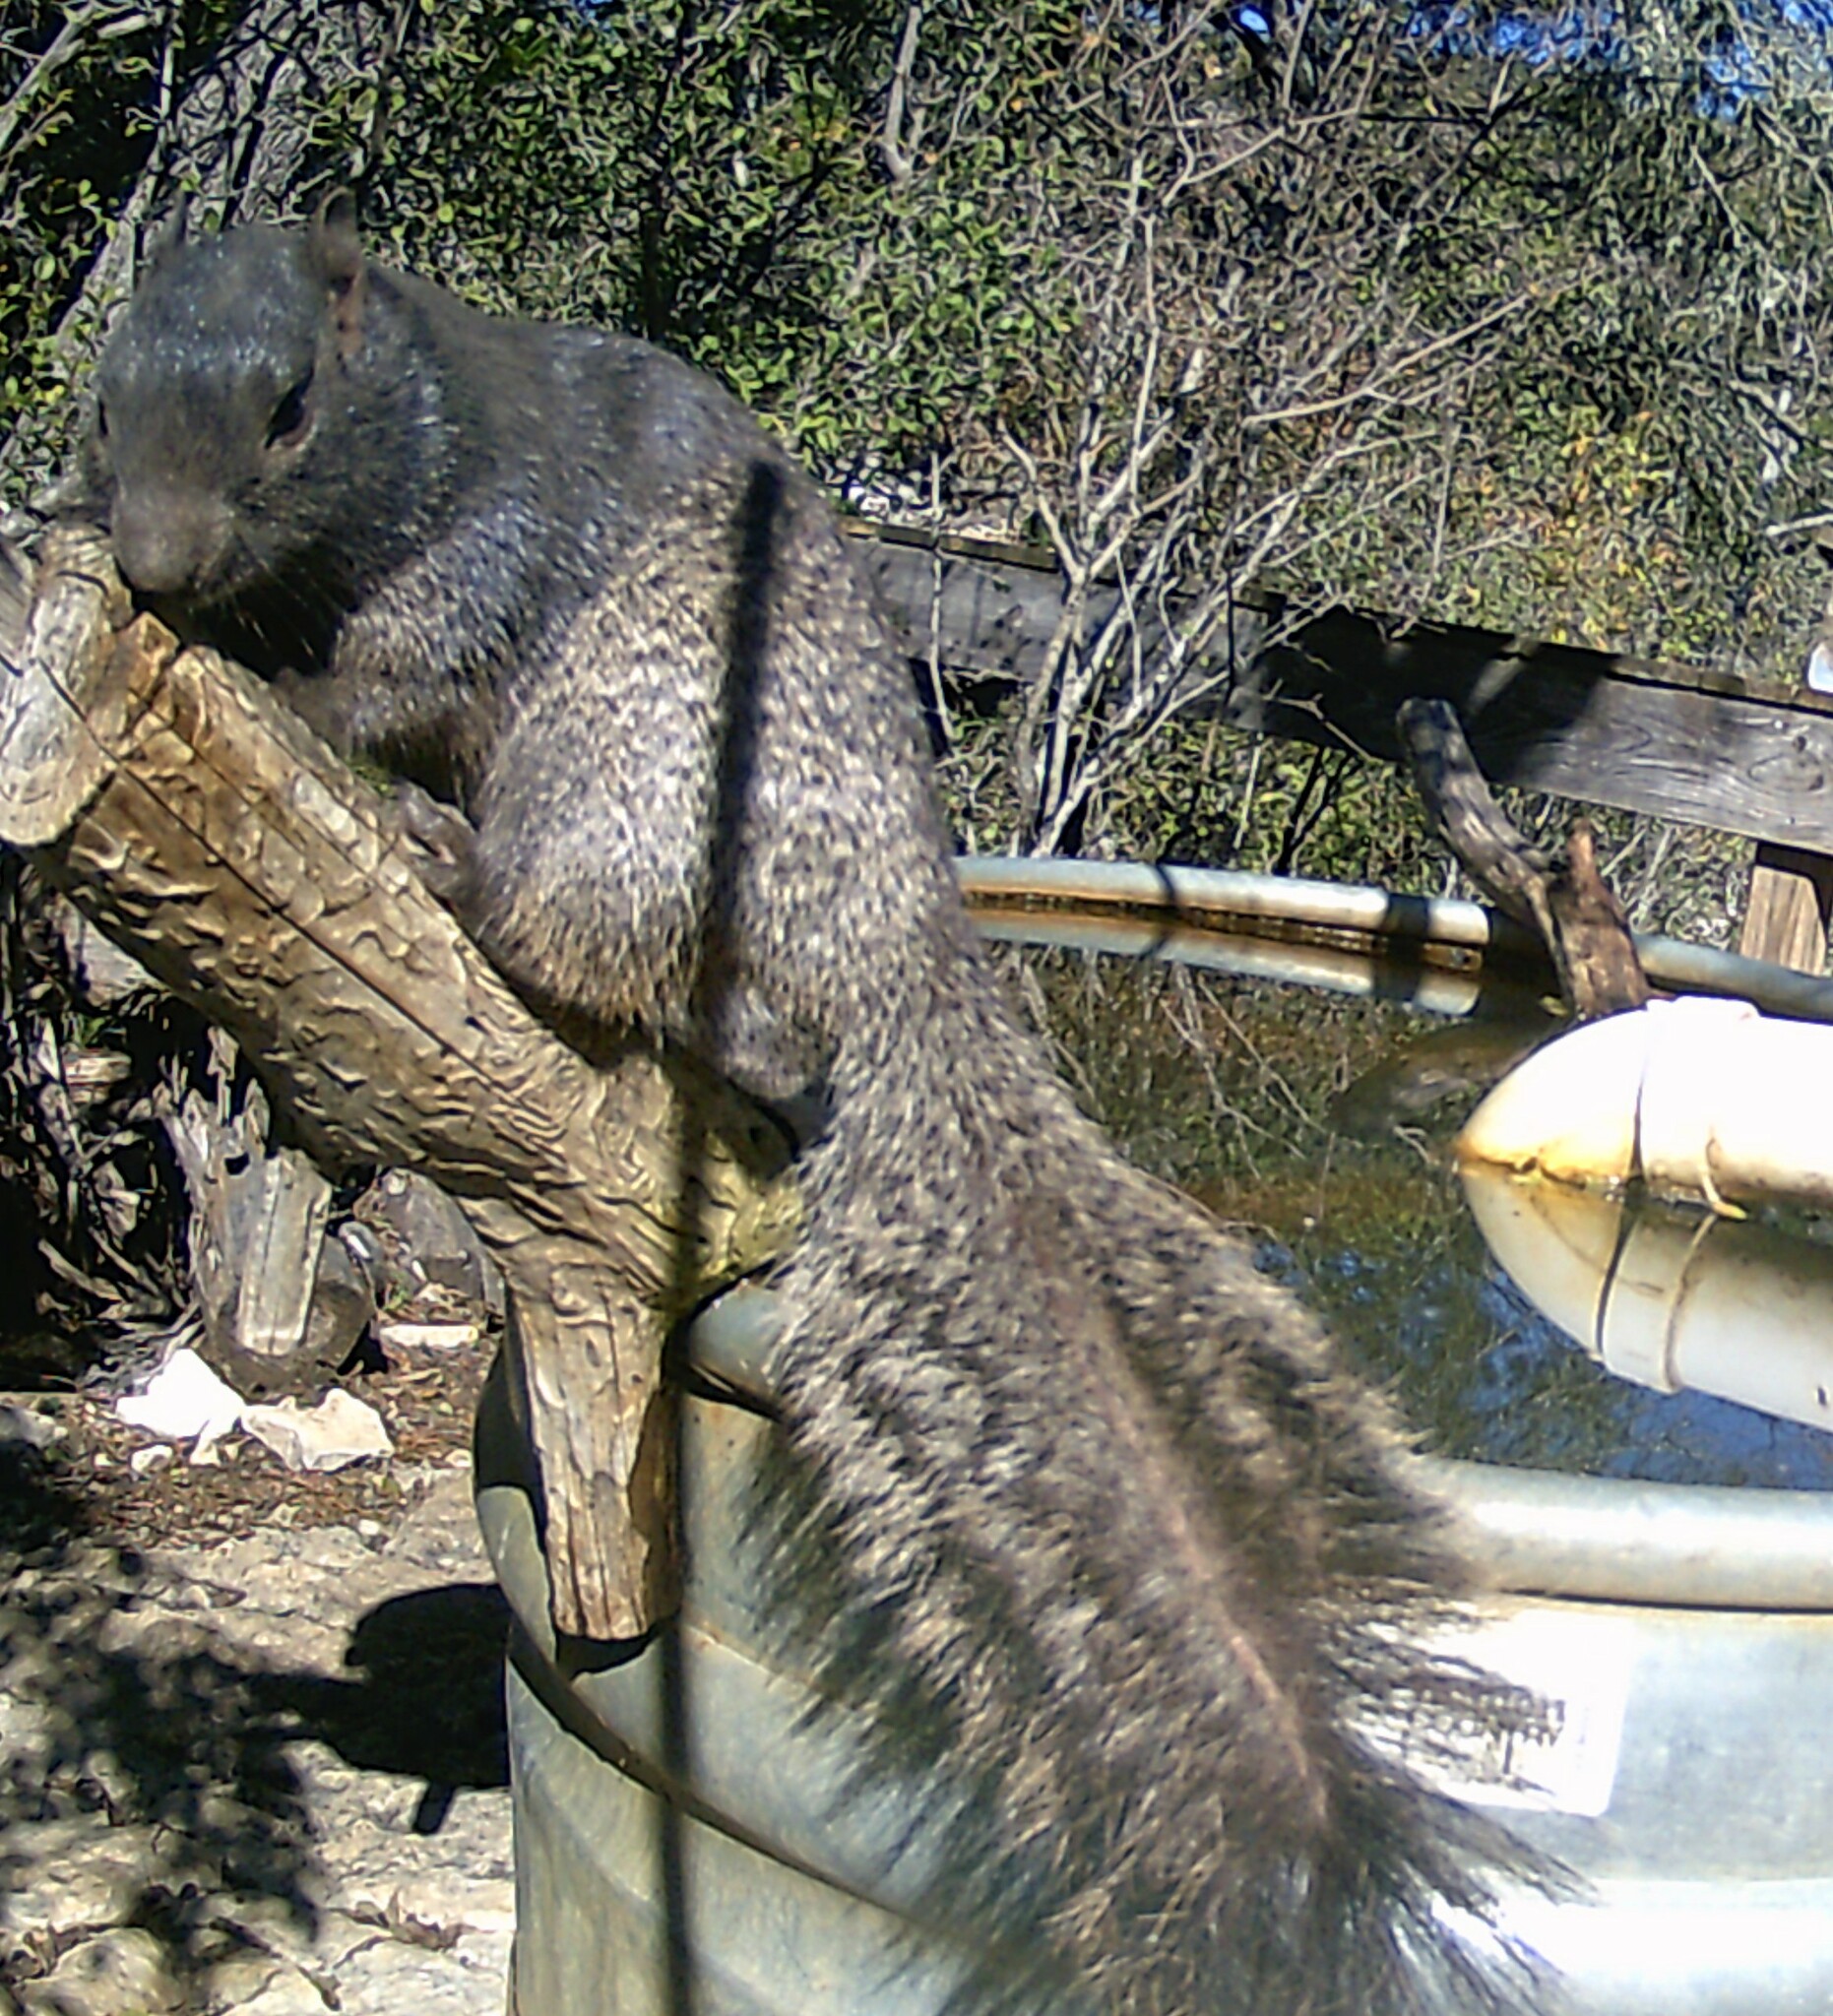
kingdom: Animalia
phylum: Chordata
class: Mammalia
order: Rodentia
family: Sciuridae
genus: Otospermophilus
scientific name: Otospermophilus variegatus
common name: Rock squirrel
